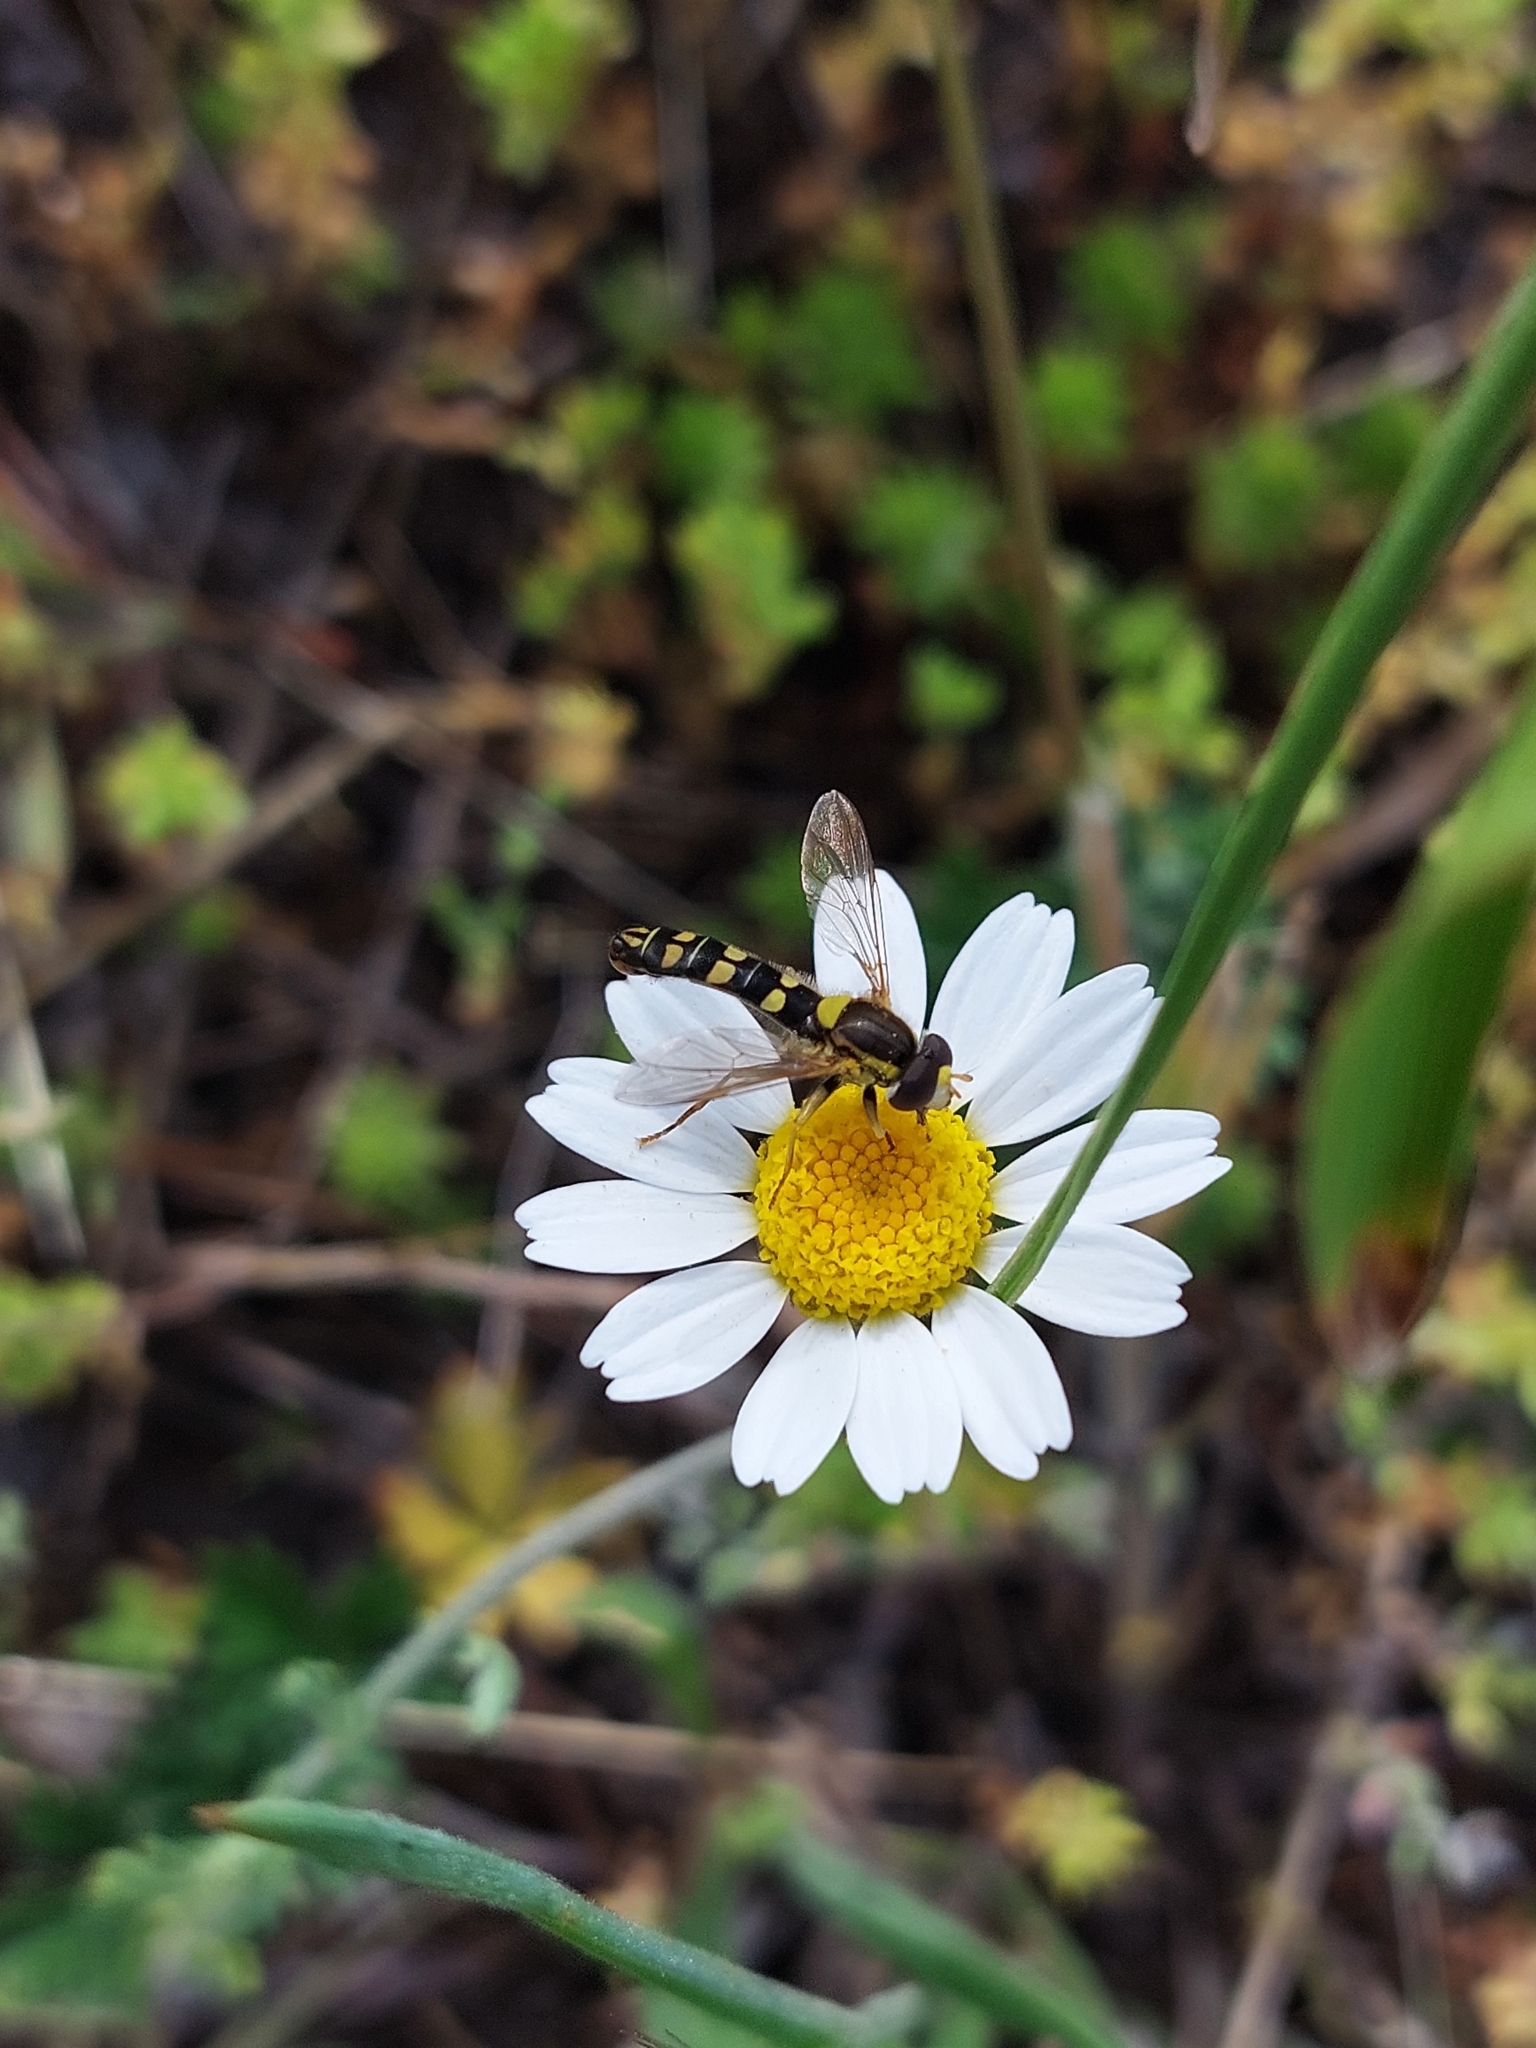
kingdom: Animalia
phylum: Arthropoda
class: Insecta
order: Diptera
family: Syrphidae
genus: Sphaerophoria
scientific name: Sphaerophoria
